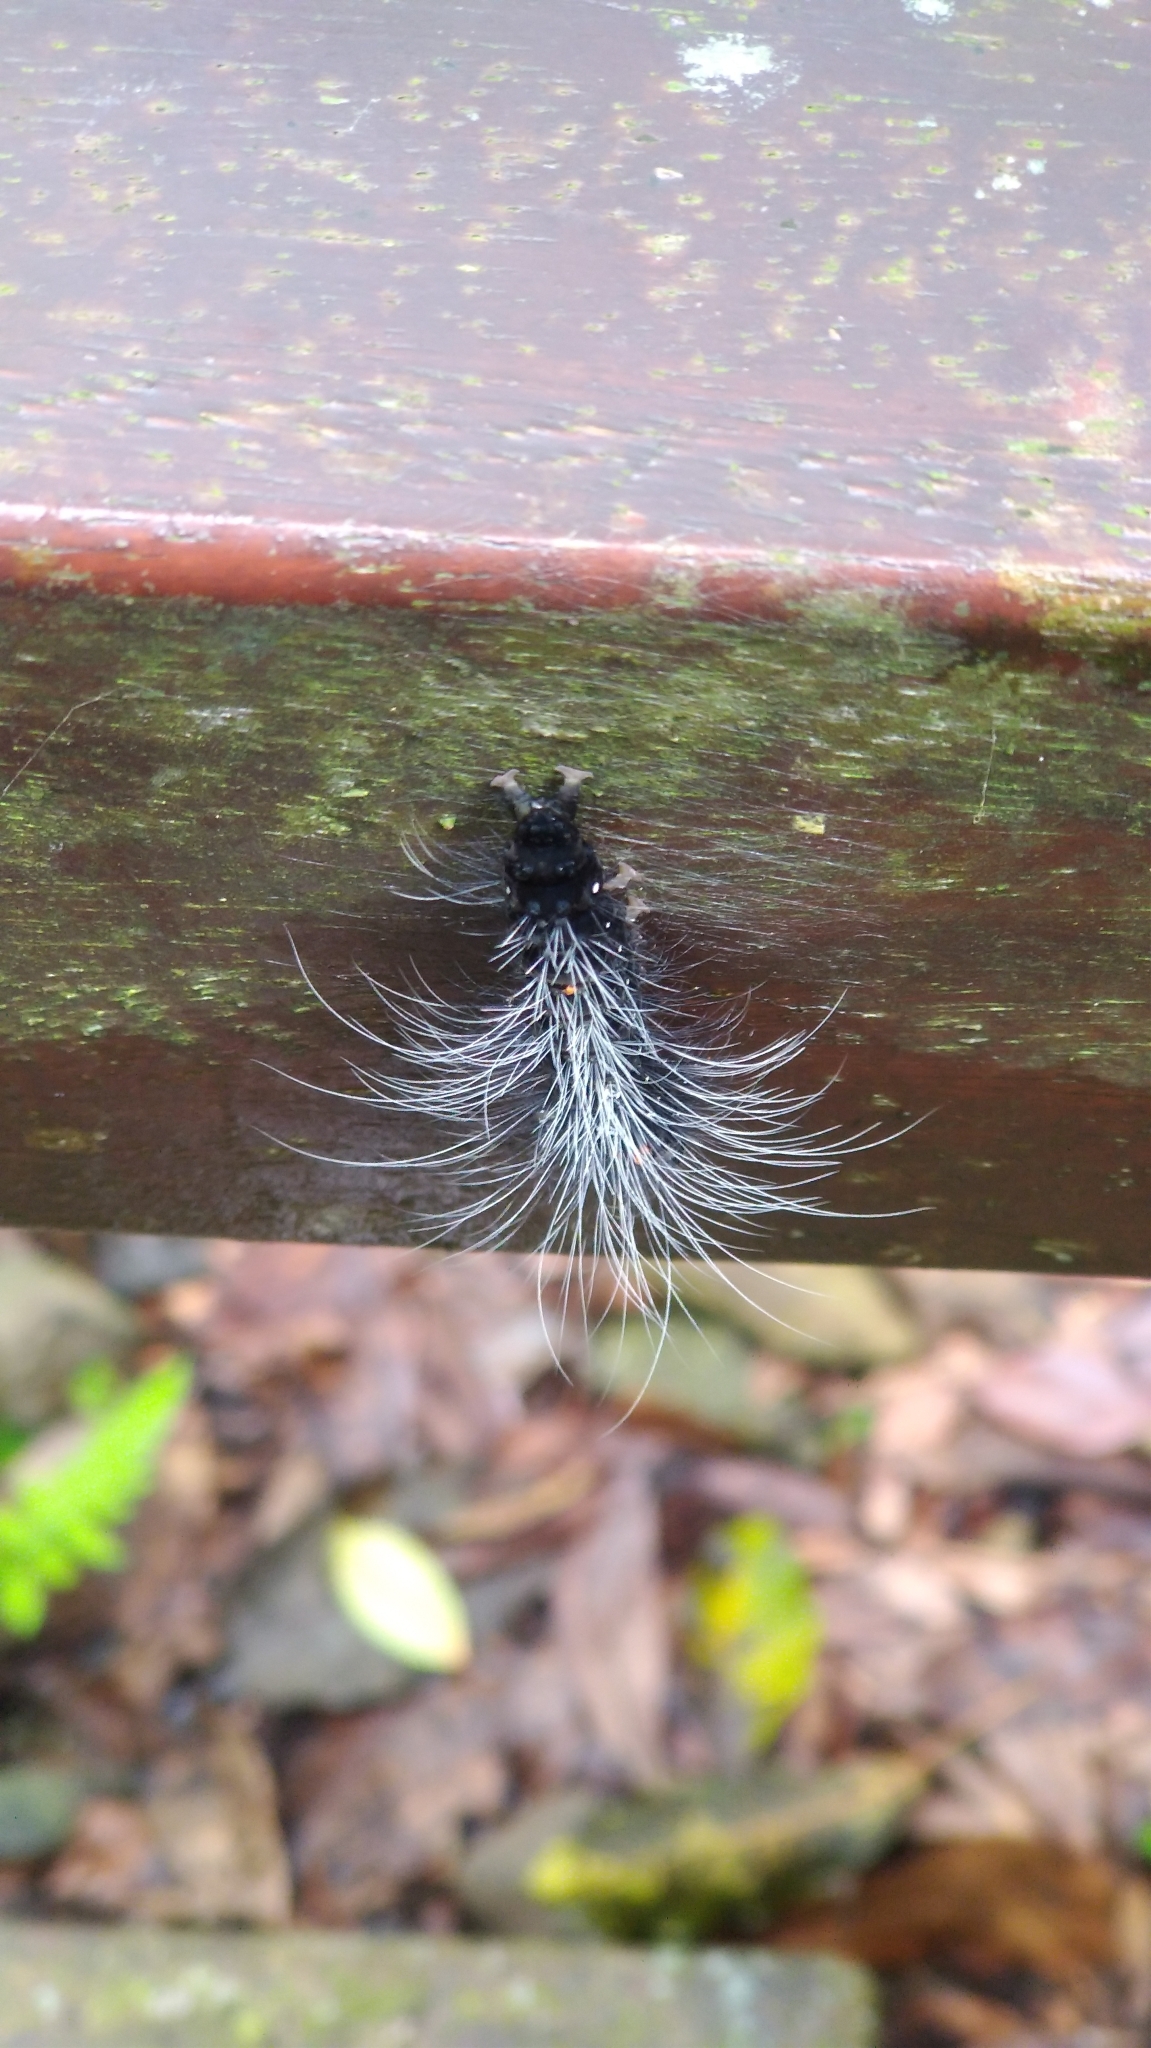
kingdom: Animalia
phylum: Arthropoda
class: Insecta
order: Lepidoptera
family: Erebidae
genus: Macrobrochis
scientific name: Macrobrochis gigas
